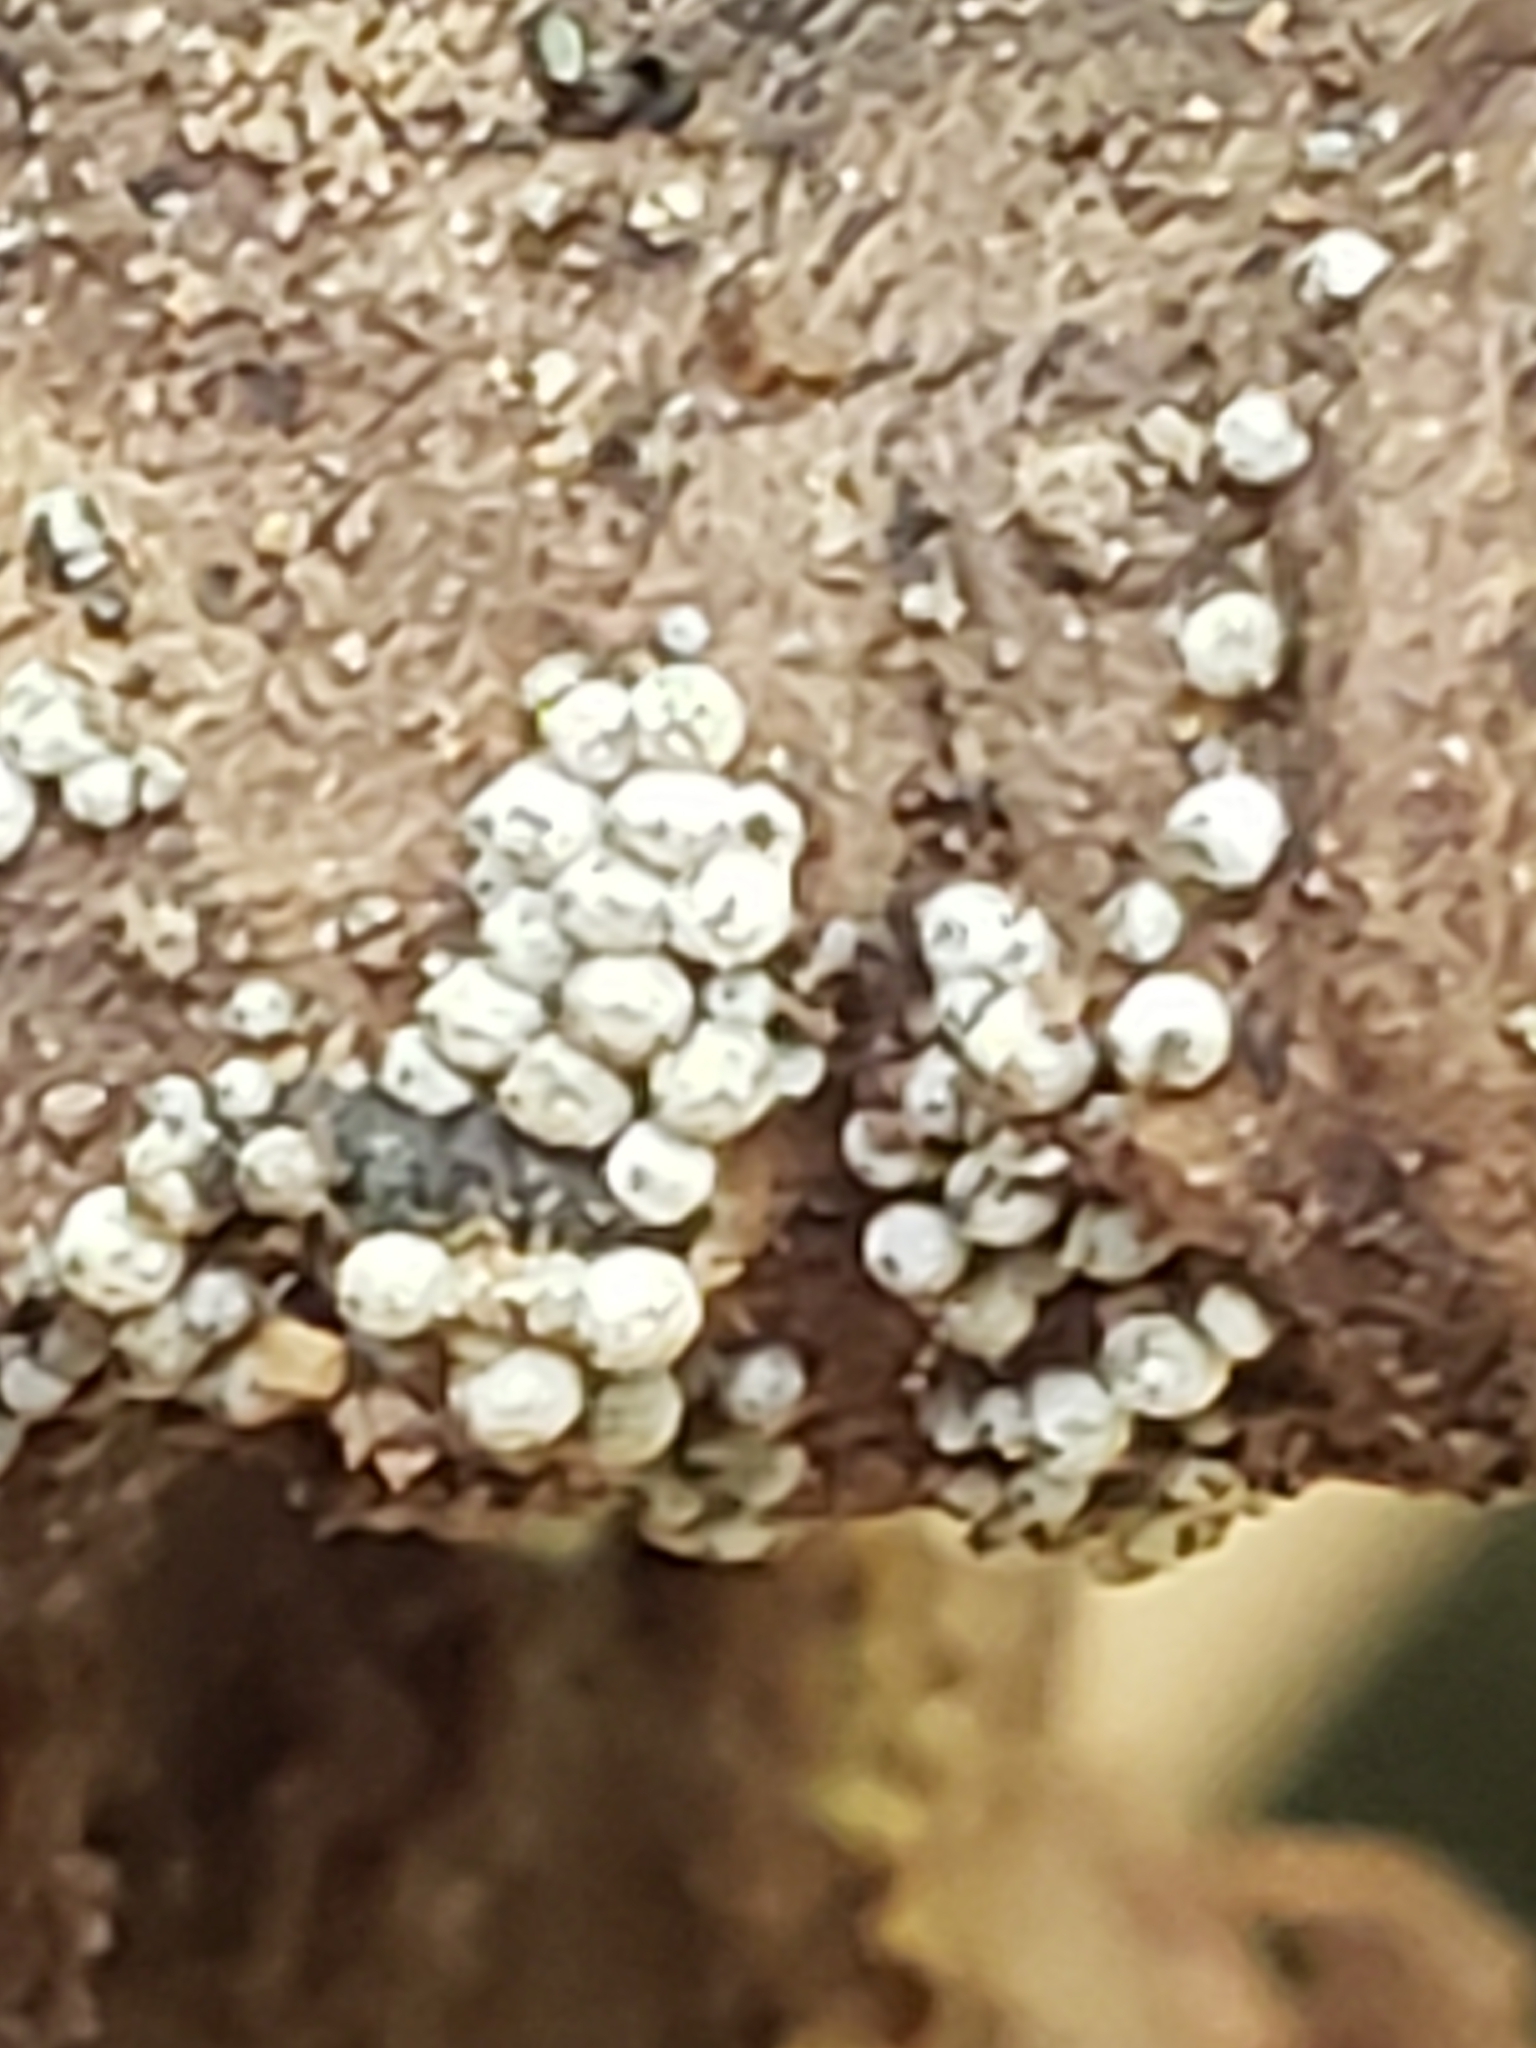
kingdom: Fungi
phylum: Ascomycota
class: Sordariomycetes
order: Sordariales
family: Lasiosphaeriaceae
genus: Lasiosphaeria
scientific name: Lasiosphaeria ovina
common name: Woolly woodwart
